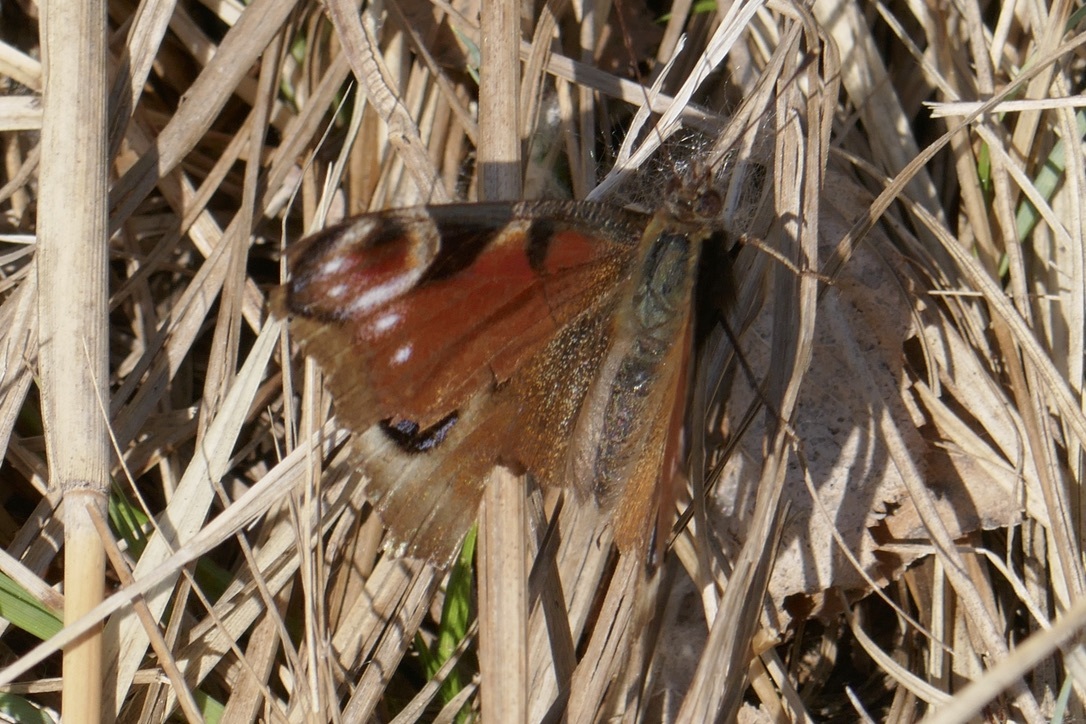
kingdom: Animalia
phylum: Arthropoda
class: Insecta
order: Lepidoptera
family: Nymphalidae
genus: Aglais
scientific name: Aglais io
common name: Peacock
